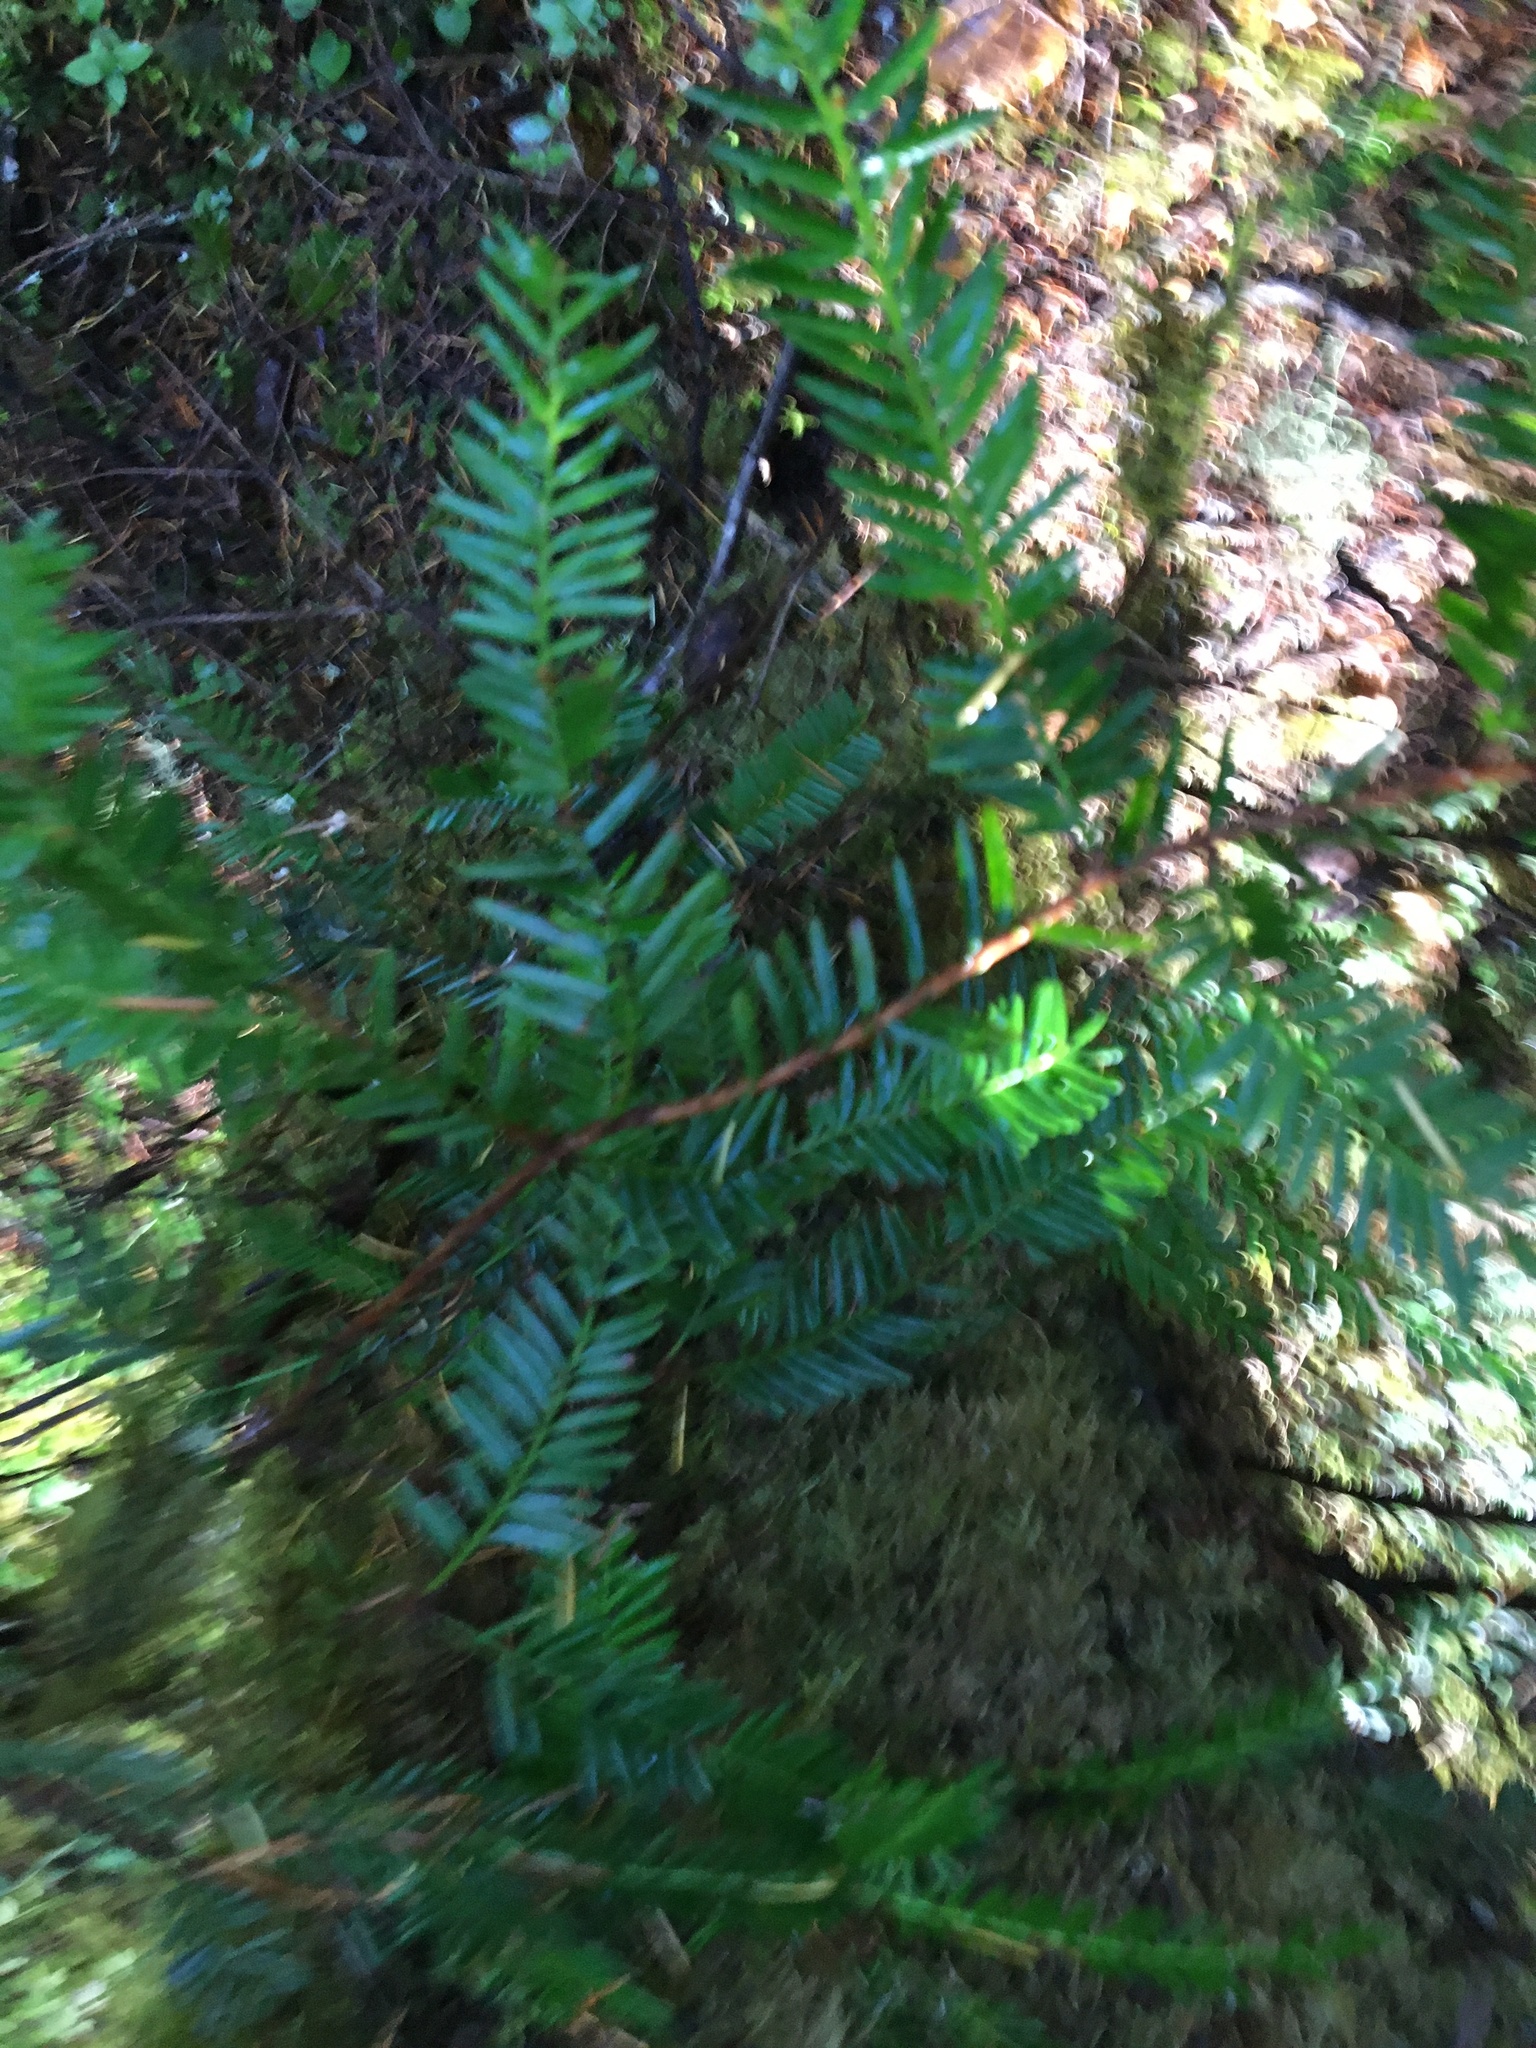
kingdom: Plantae
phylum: Tracheophyta
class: Pinopsida
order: Pinales
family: Taxaceae
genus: Taxus
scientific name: Taxus brevifolia
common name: Pacific yew
